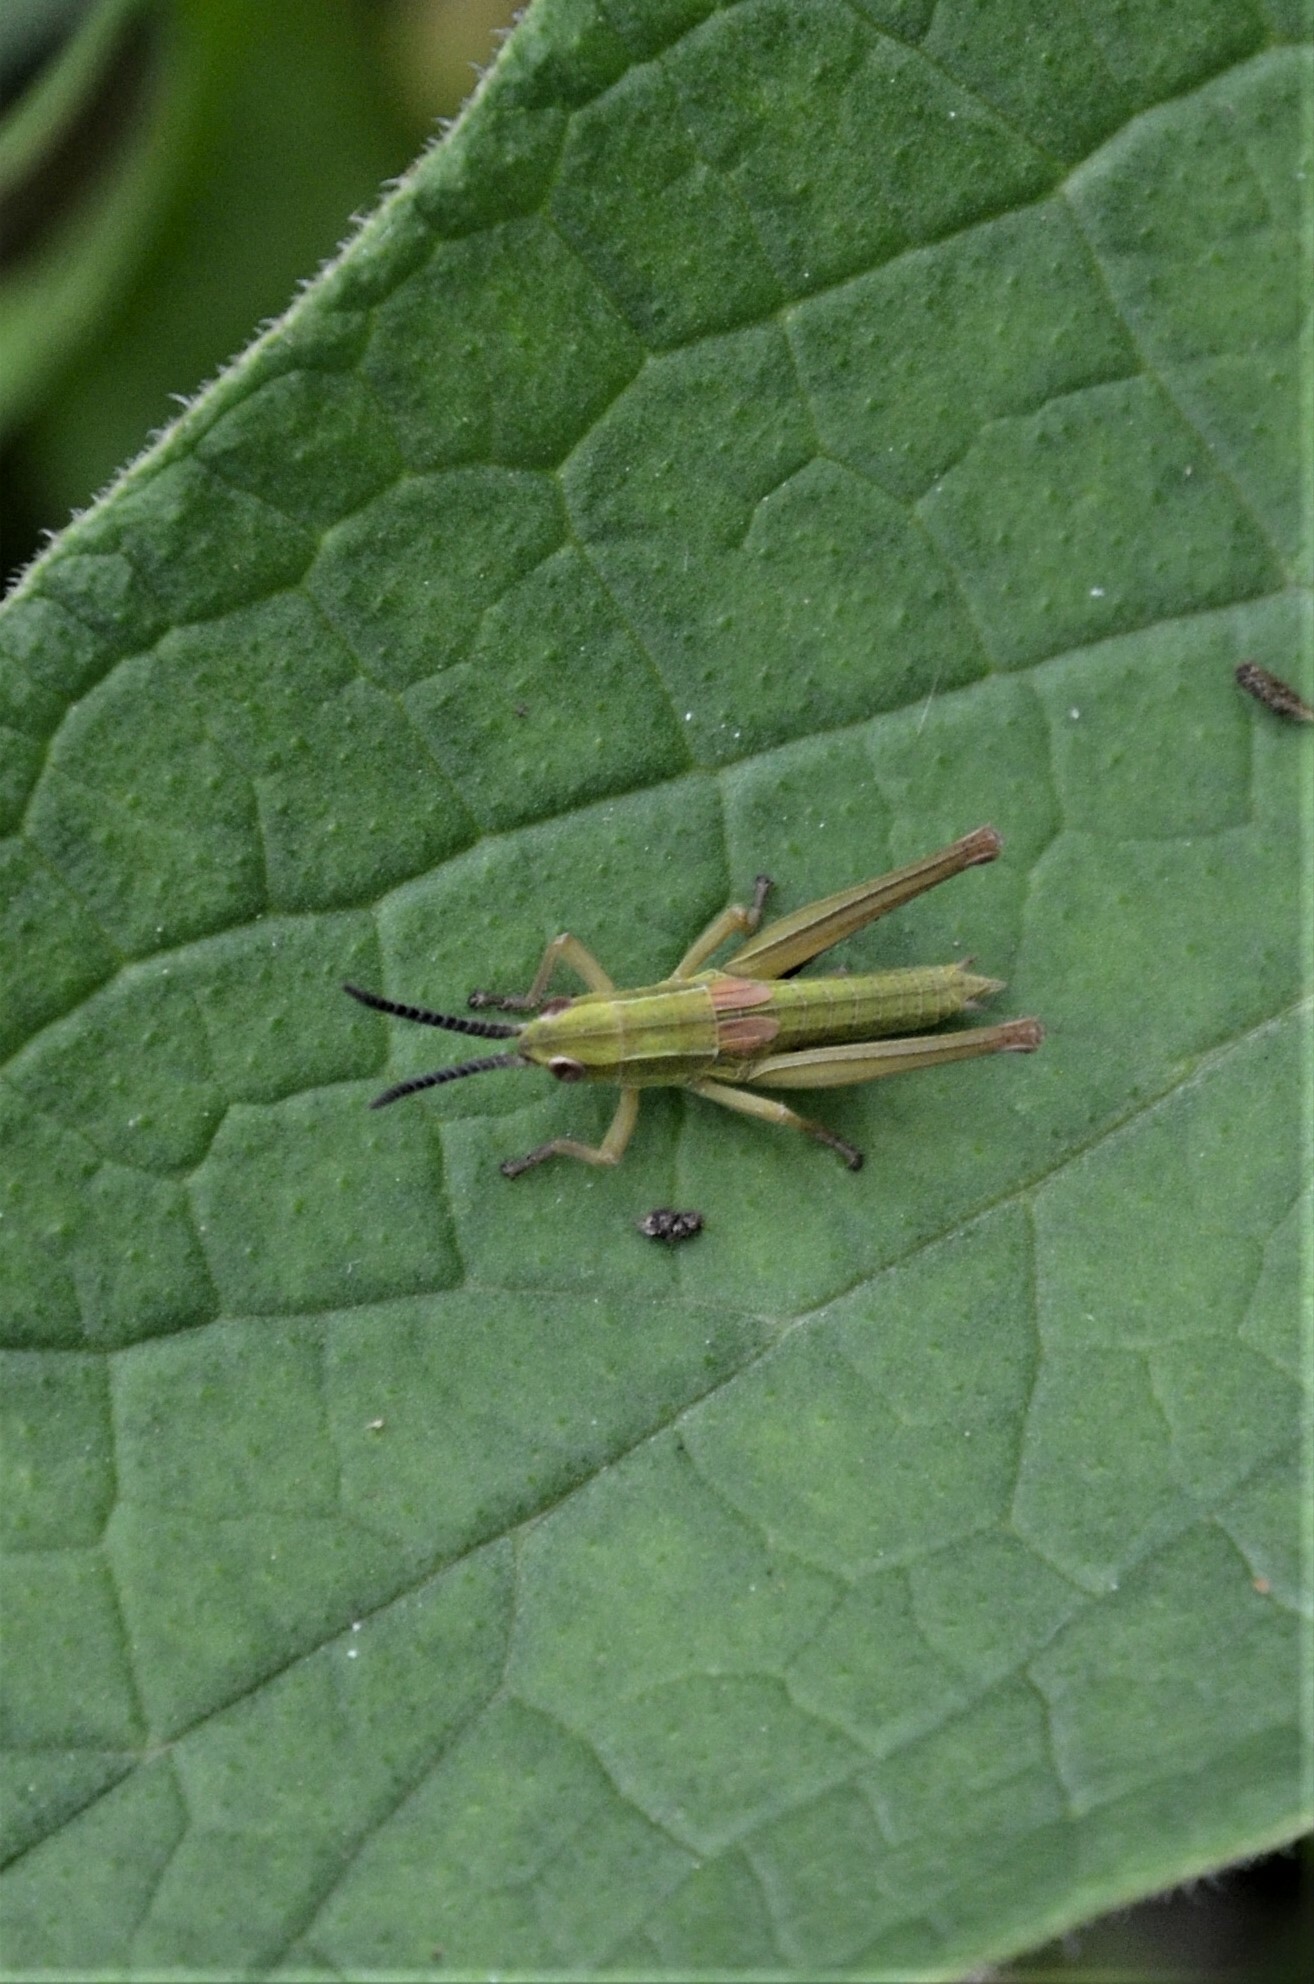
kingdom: Animalia
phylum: Arthropoda
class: Insecta
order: Orthoptera
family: Acrididae
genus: Euthystira
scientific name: Euthystira brachyptera
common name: Small gold grasshopper
